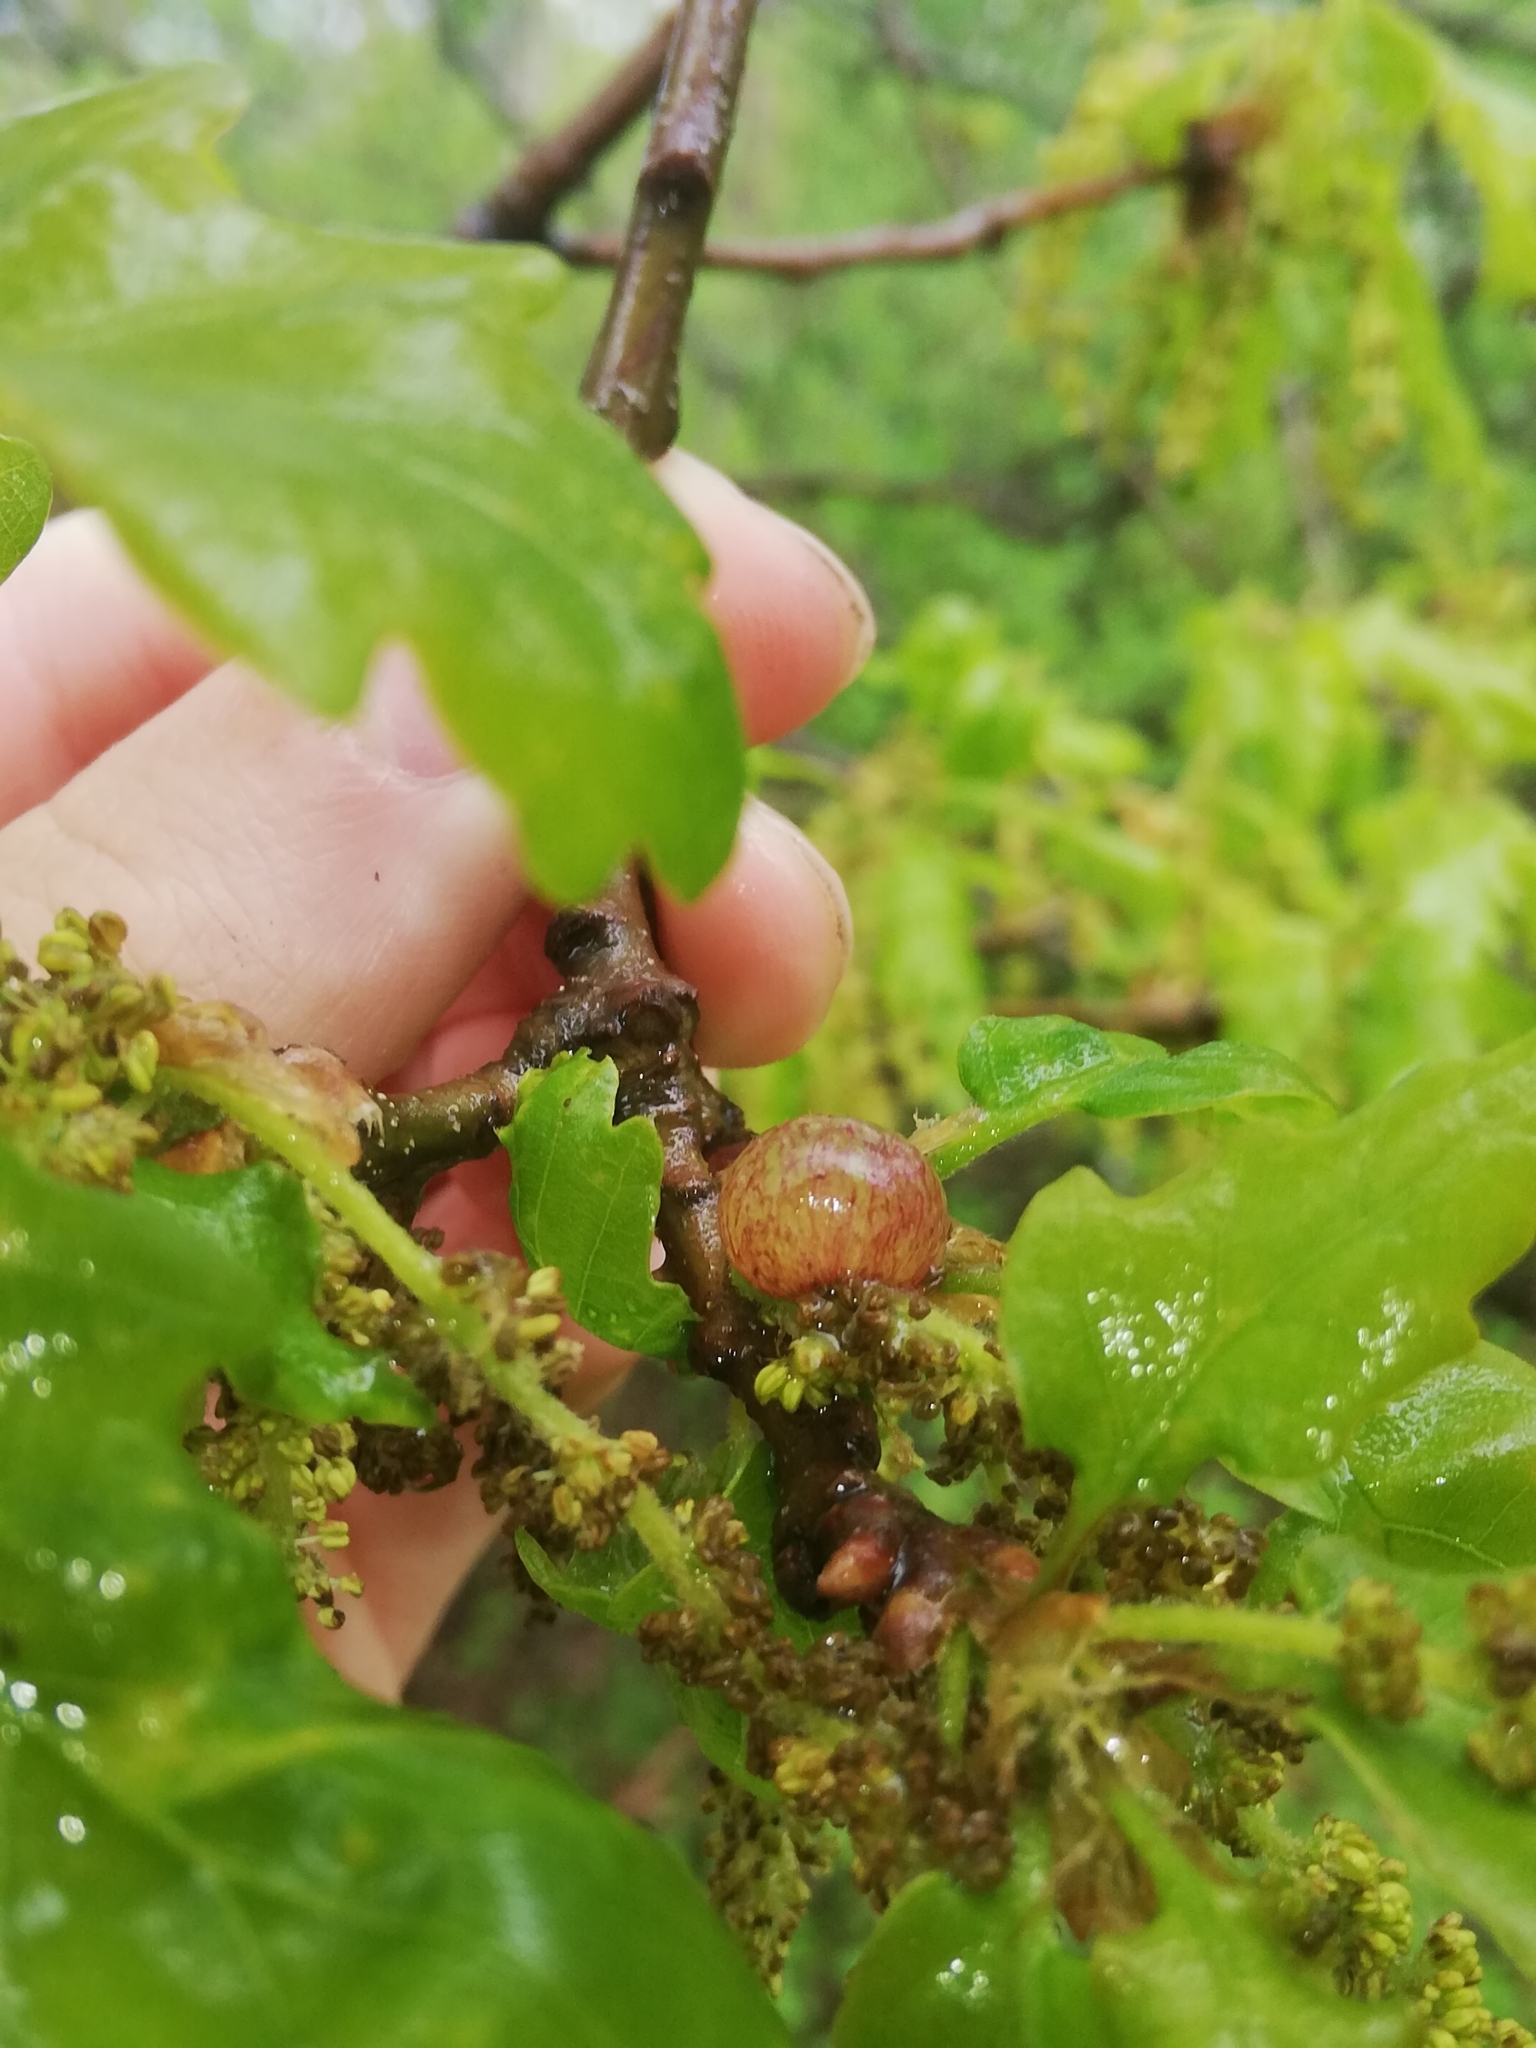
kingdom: Animalia
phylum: Arthropoda
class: Insecta
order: Hymenoptera
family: Cynipidae
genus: Neuroterus
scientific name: Neuroterus quercusbaccarum
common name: Common spangle gall
